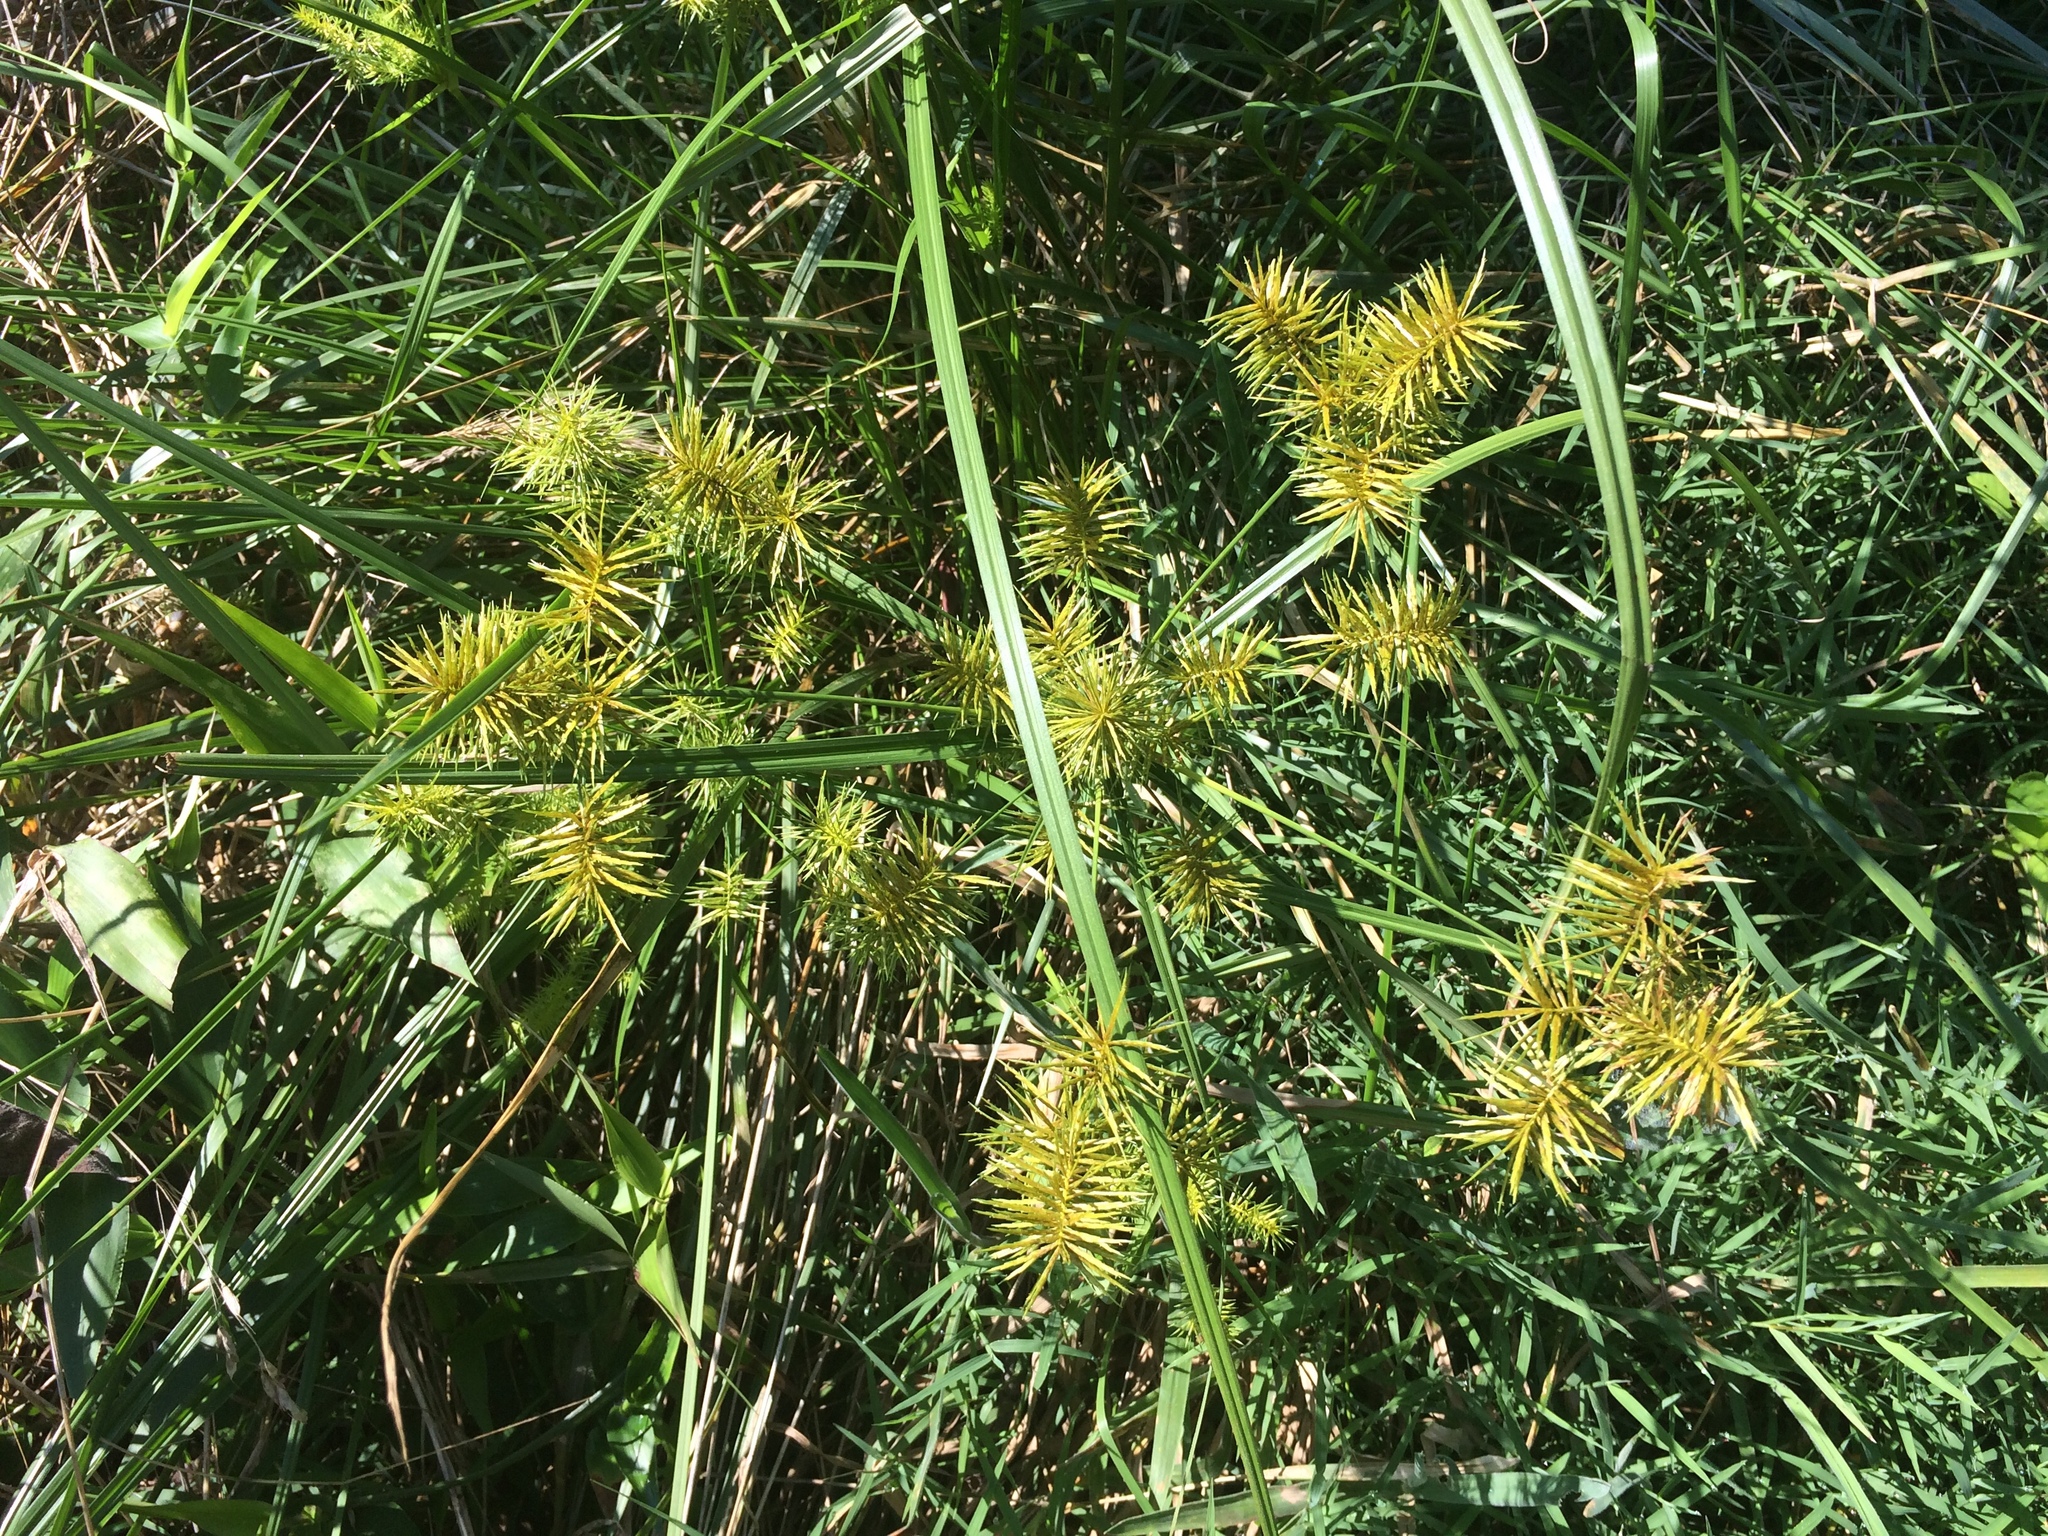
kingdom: Plantae
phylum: Tracheophyta
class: Liliopsida
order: Poales
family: Cyperaceae
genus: Cyperus
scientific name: Cyperus strigosus
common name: False nutsedge
